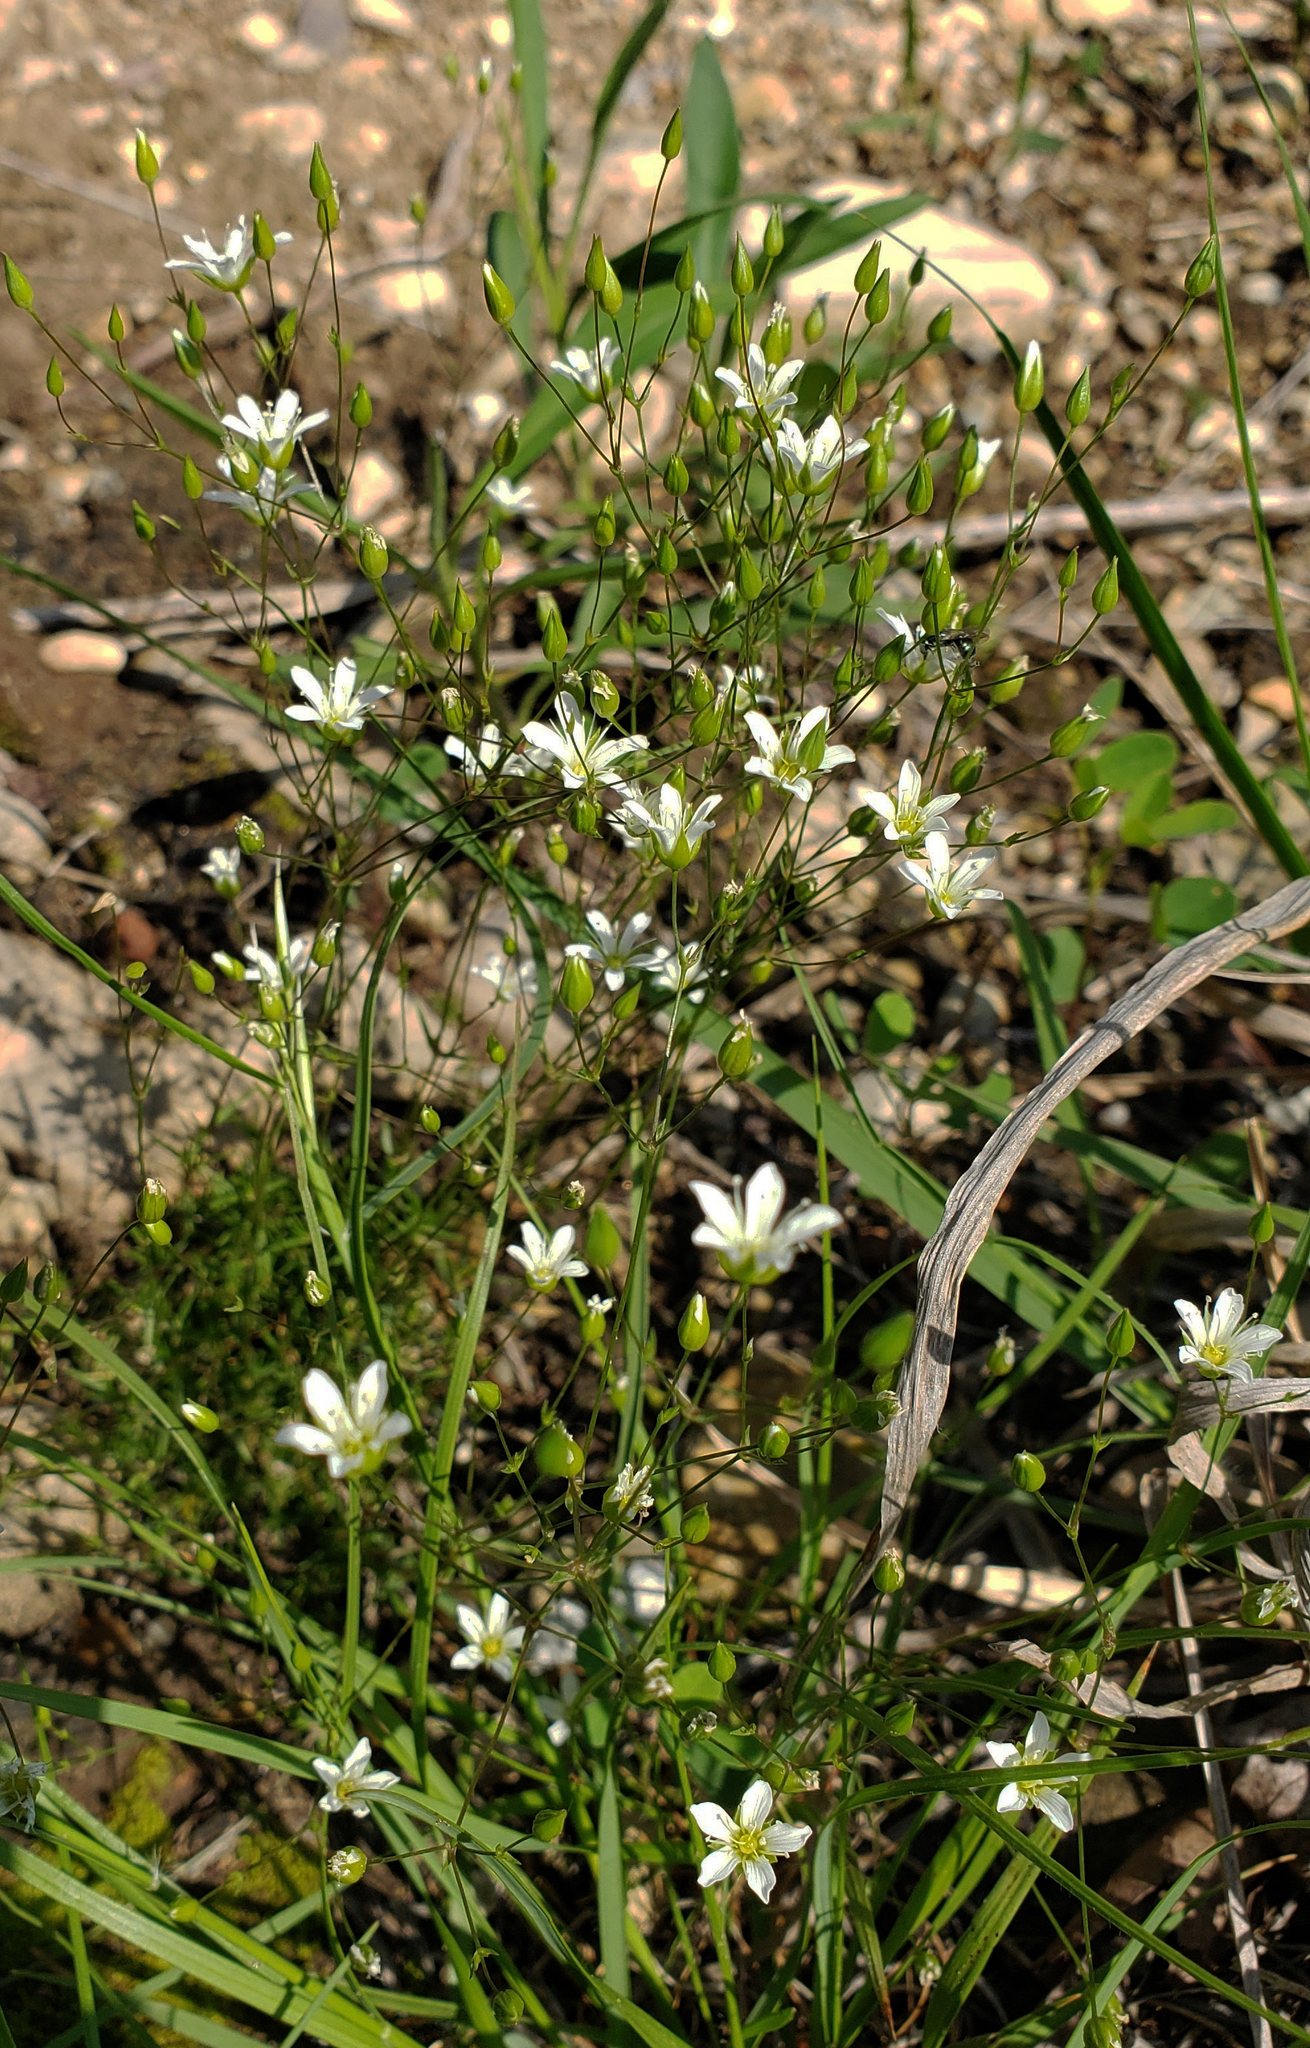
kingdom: Plantae
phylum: Tracheophyta
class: Magnoliopsida
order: Caryophyllales
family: Caryophyllaceae
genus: Sabulina
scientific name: Sabulina michauxii
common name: Michaux's stitchwort
